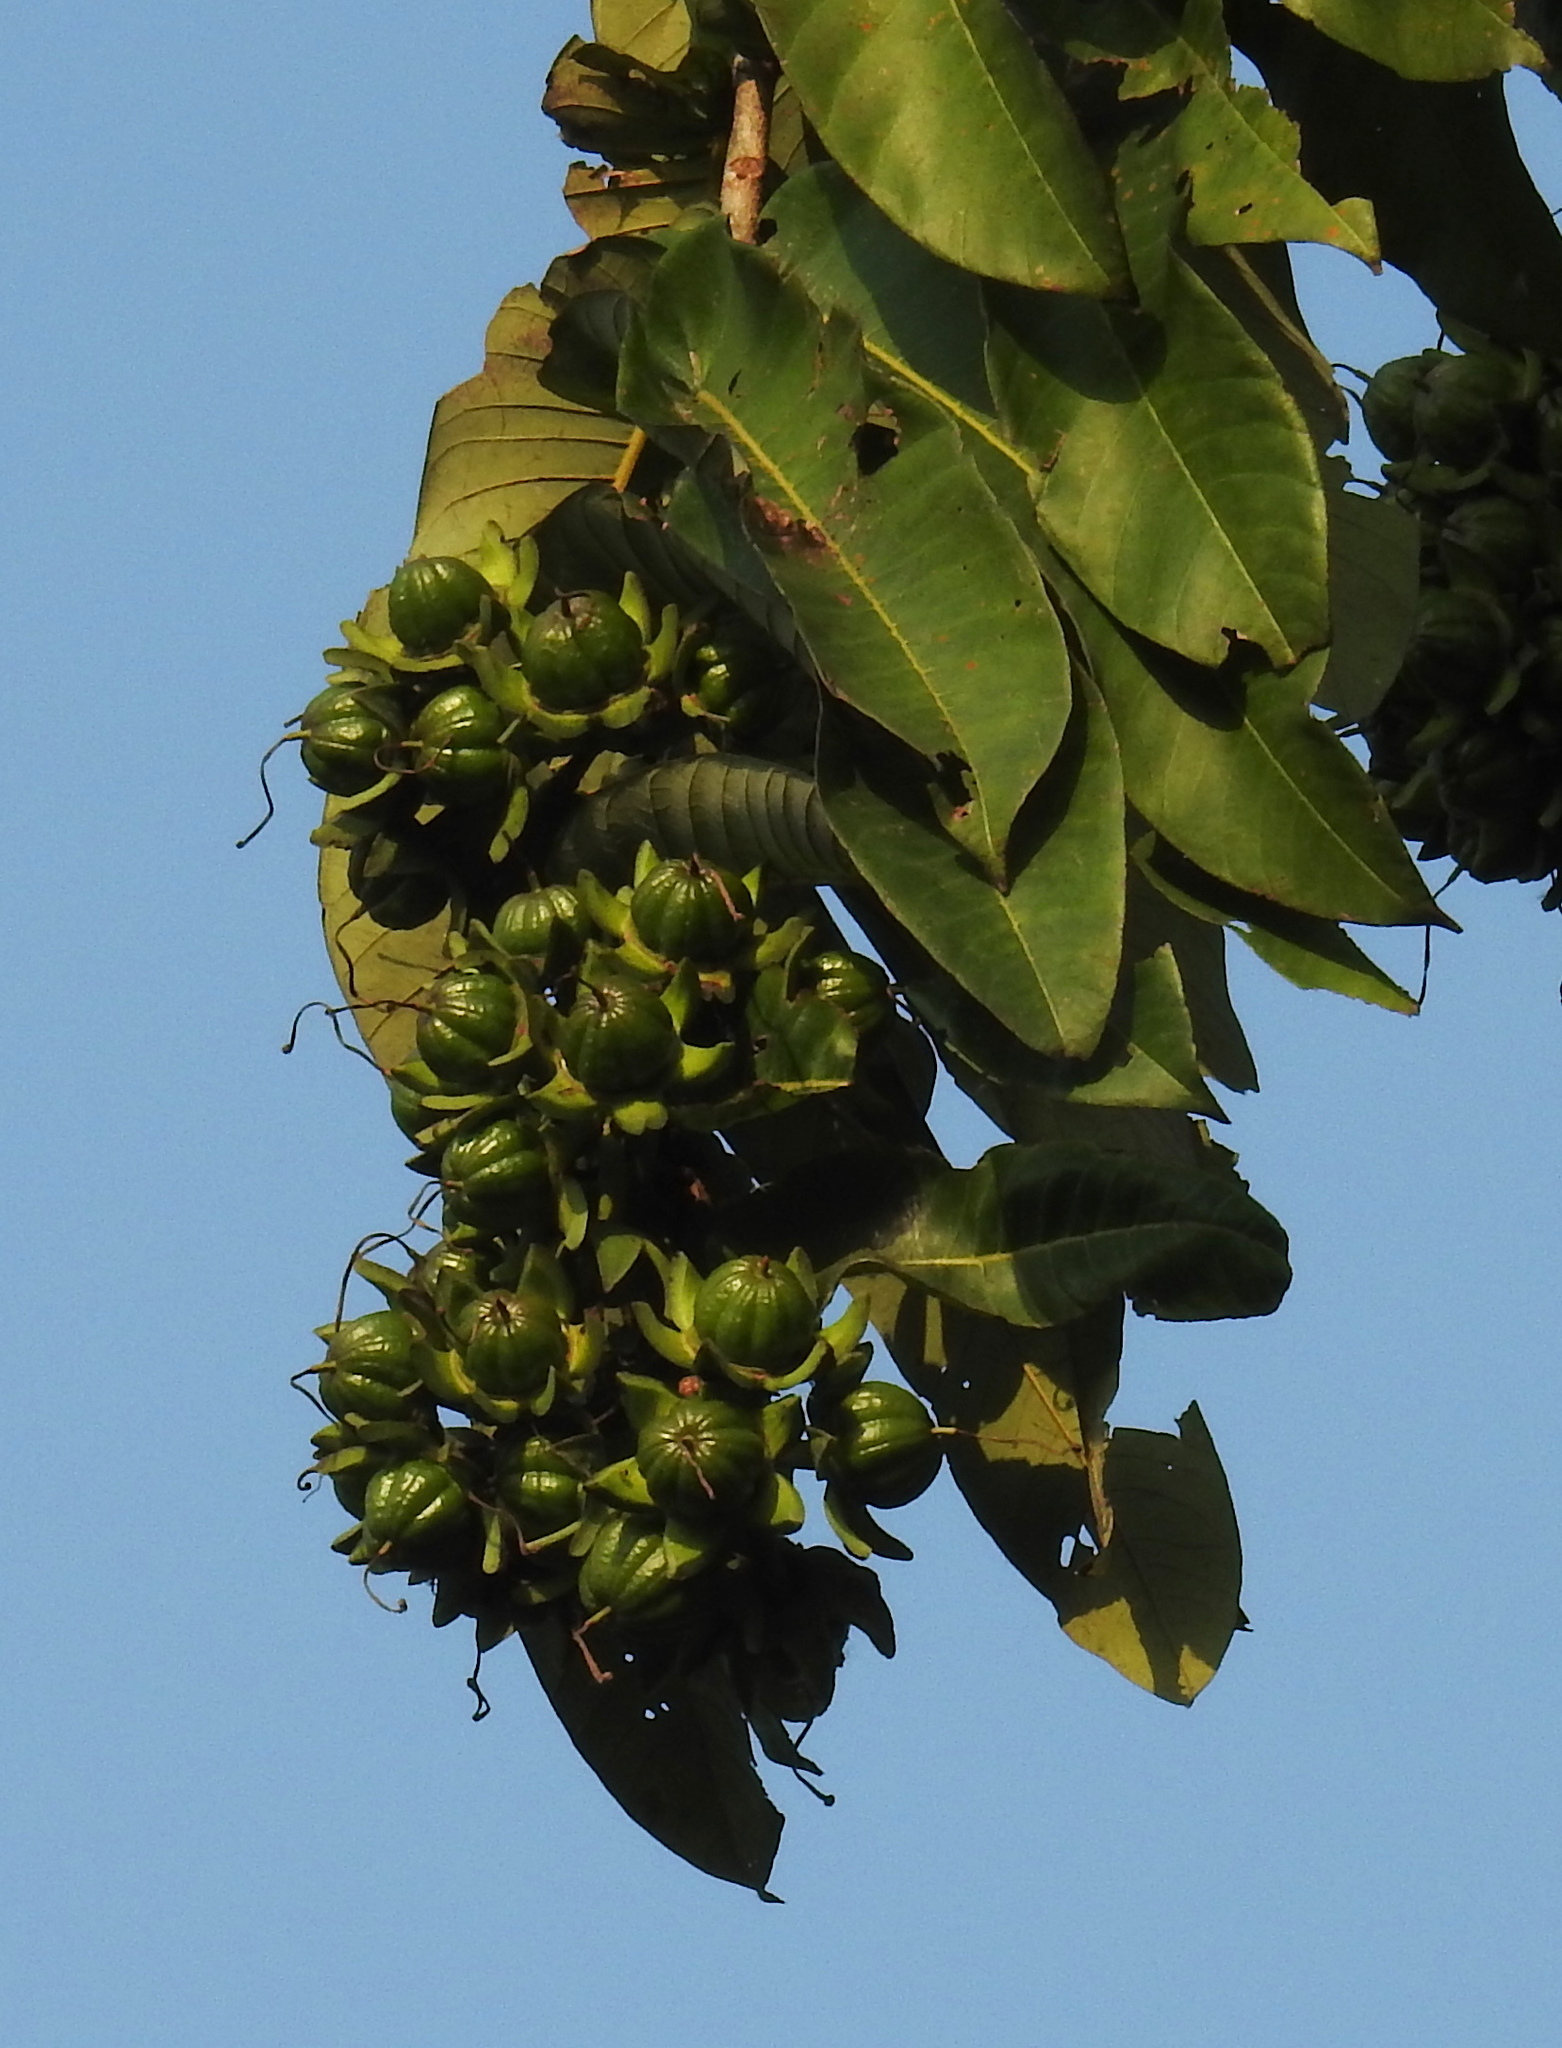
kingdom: Plantae
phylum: Tracheophyta
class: Magnoliopsida
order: Myrtales
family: Lythraceae
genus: Duabanga
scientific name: Duabanga grandiflora
